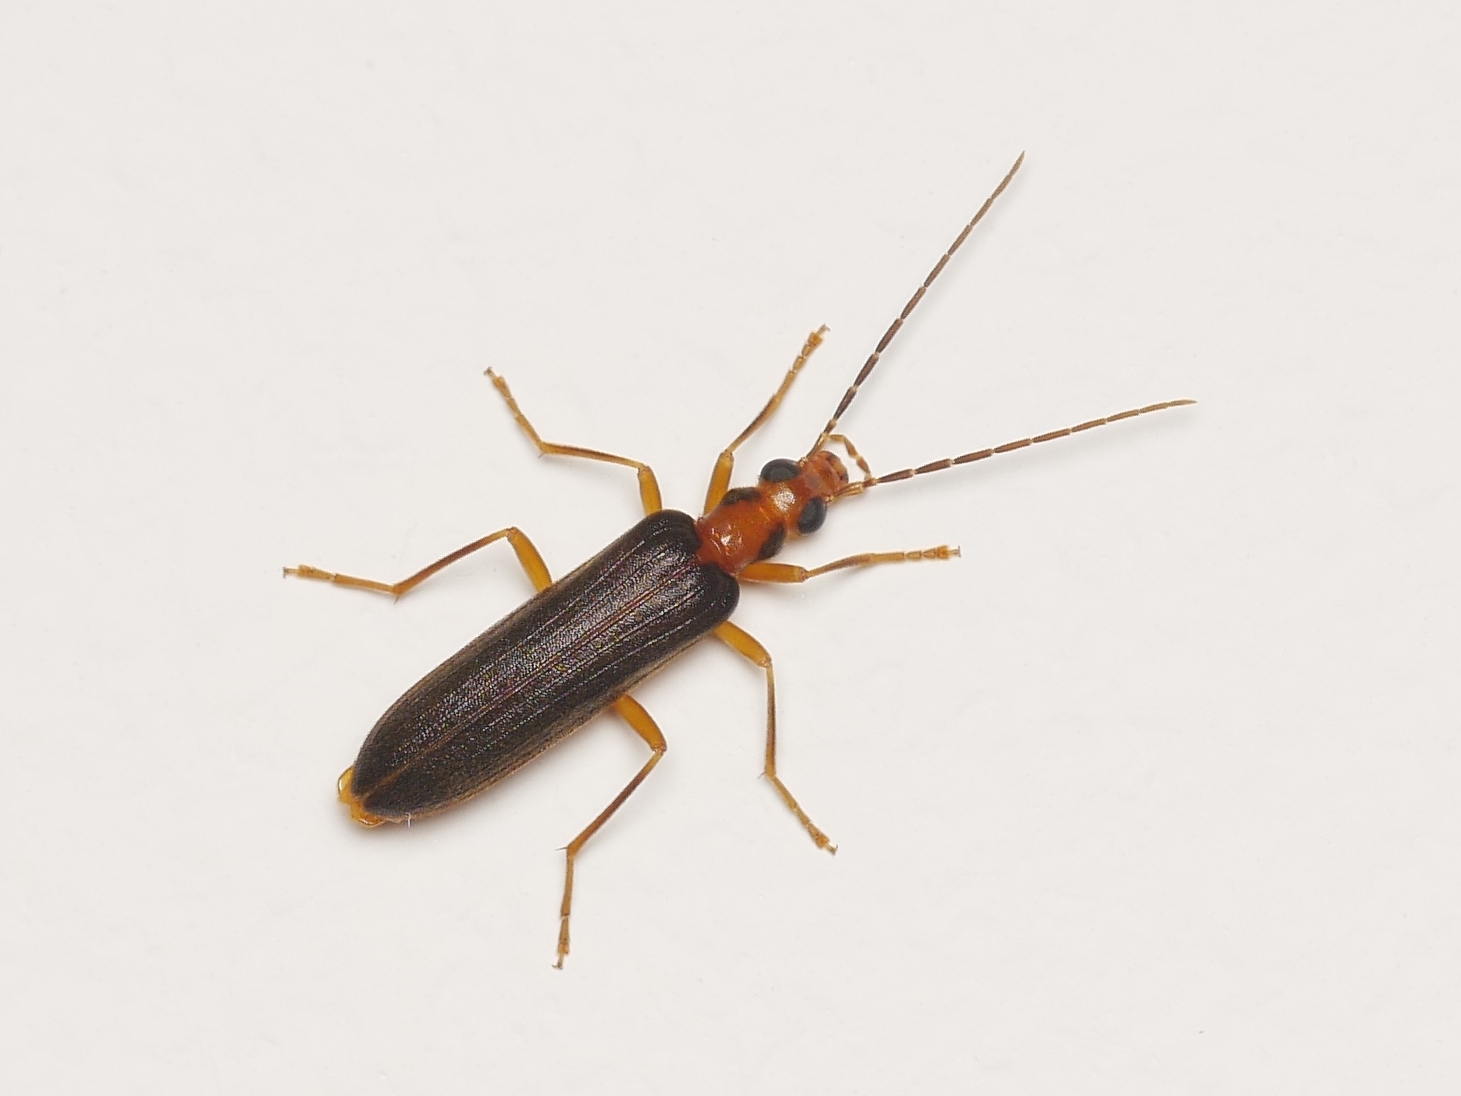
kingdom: Animalia
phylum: Arthropoda
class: Insecta
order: Coleoptera
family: Oedemeridae
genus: Nacerdes
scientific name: Nacerdes carniolica
